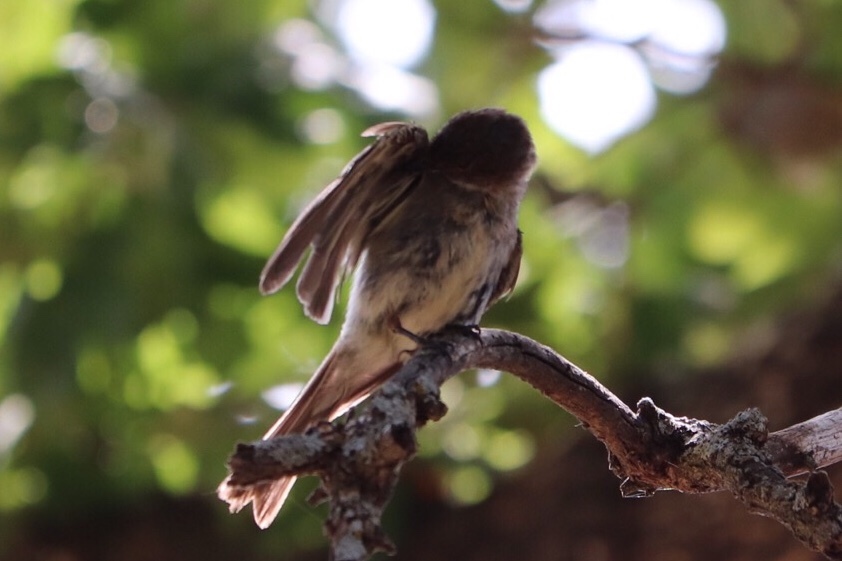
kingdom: Animalia
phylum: Chordata
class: Aves
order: Passeriformes
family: Tyrannidae
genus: Sayornis
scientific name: Sayornis phoebe
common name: Eastern phoebe
